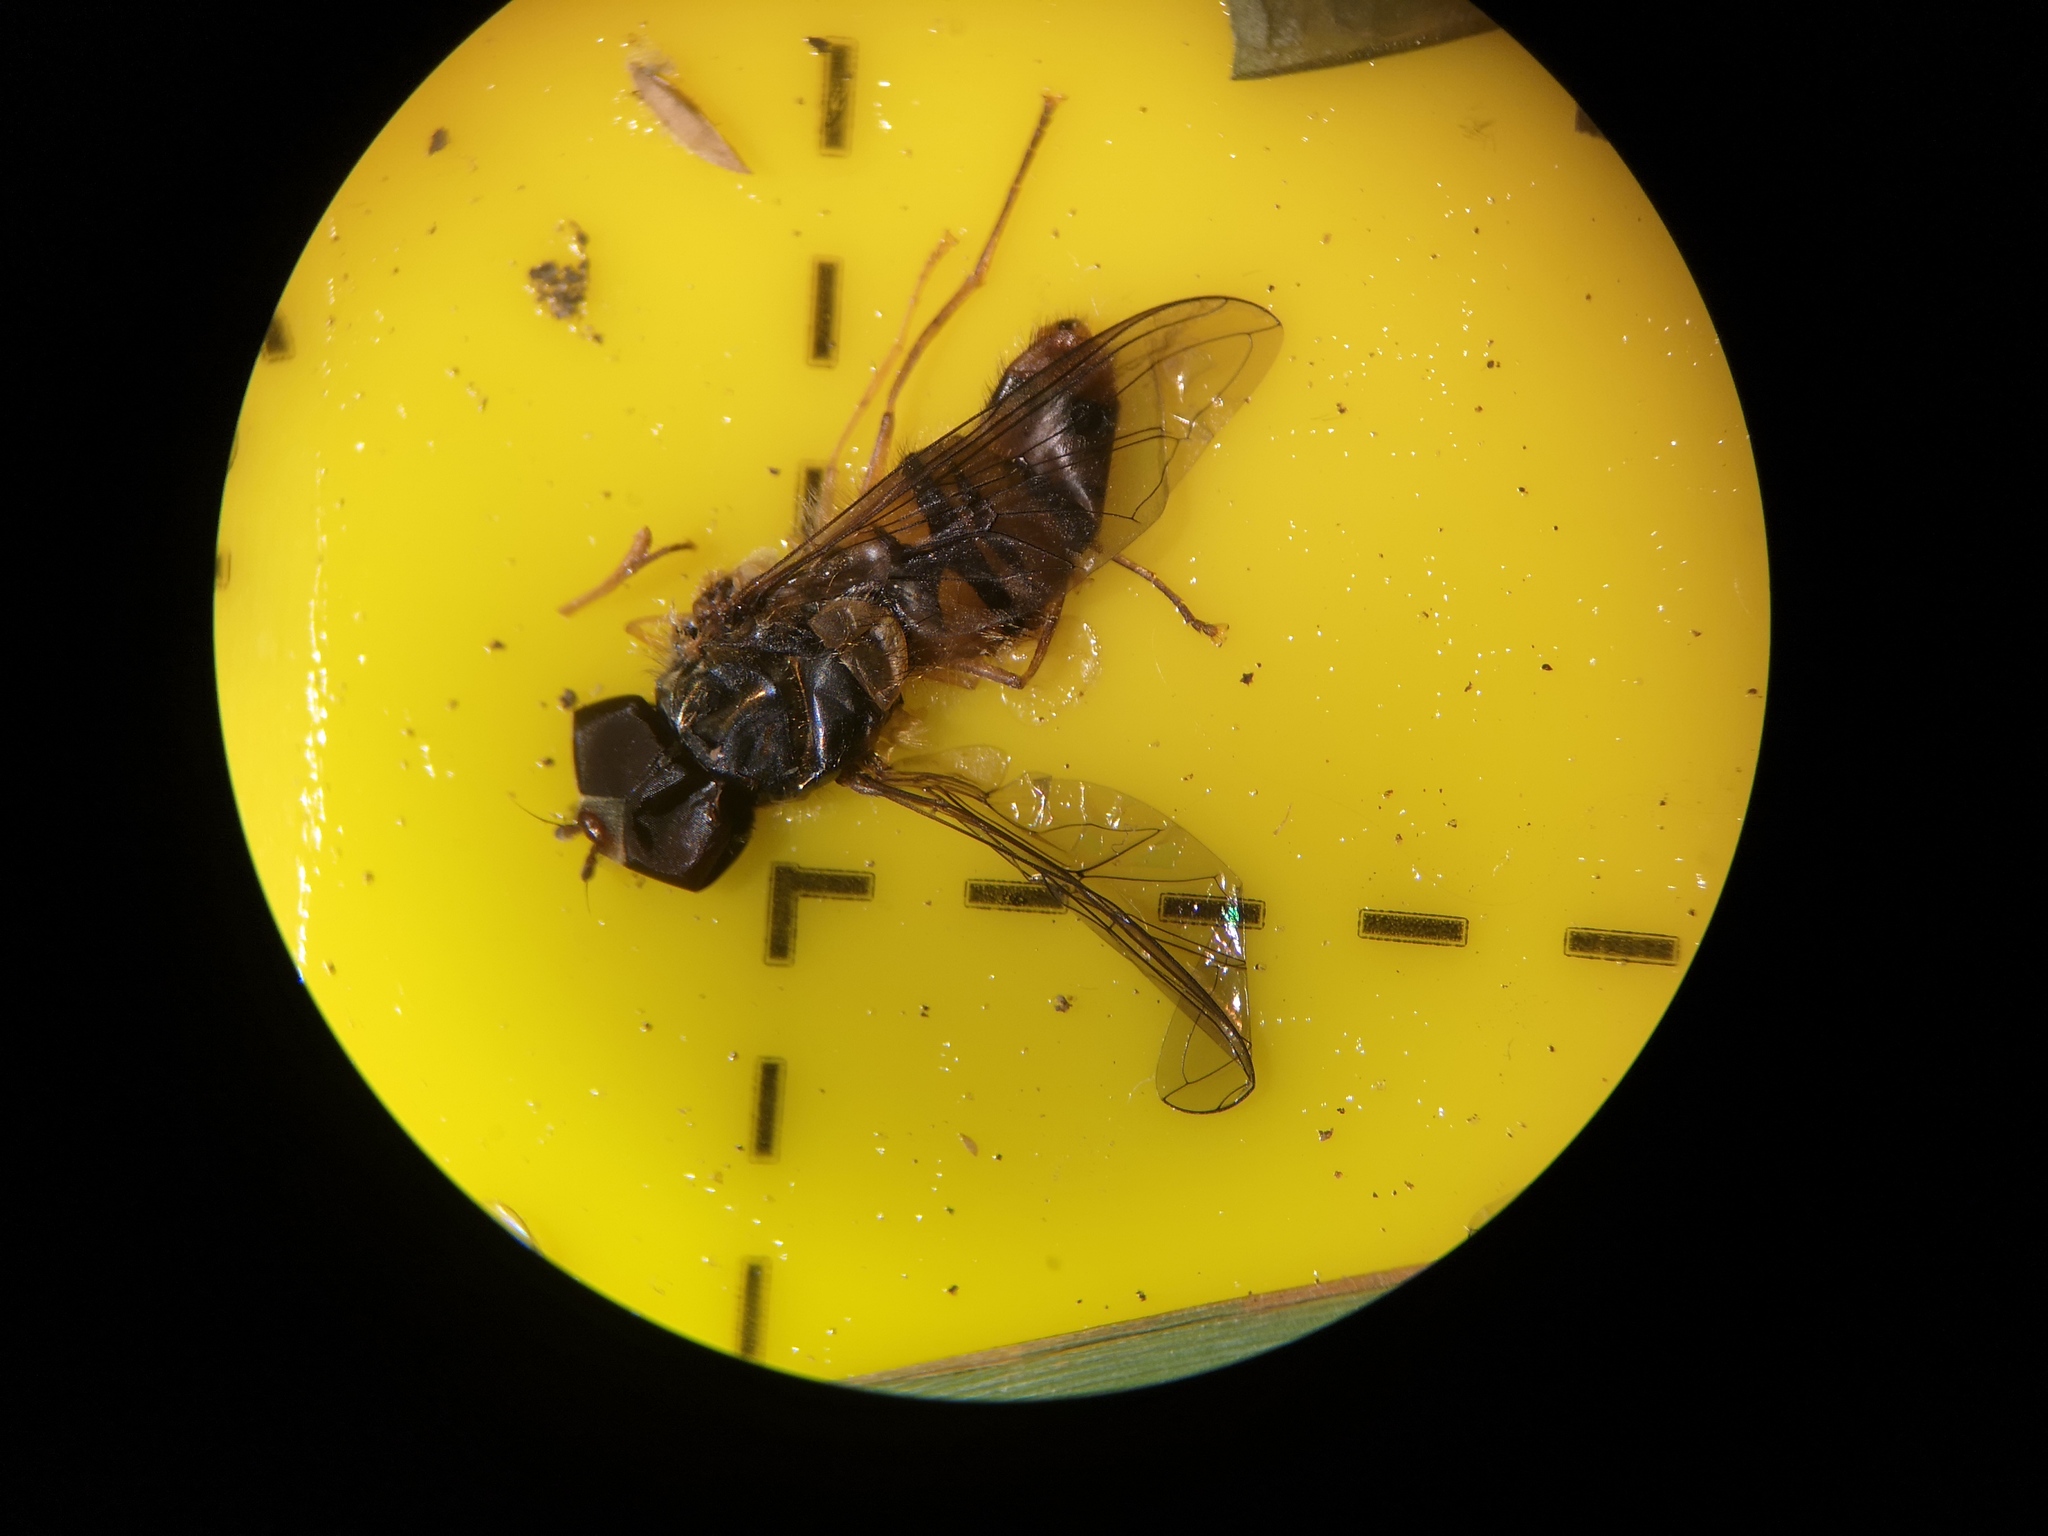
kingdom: Animalia
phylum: Arthropoda
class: Insecta
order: Diptera
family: Syrphidae
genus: Episyrphus
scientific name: Episyrphus balteatus
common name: Marmalade hoverfly
